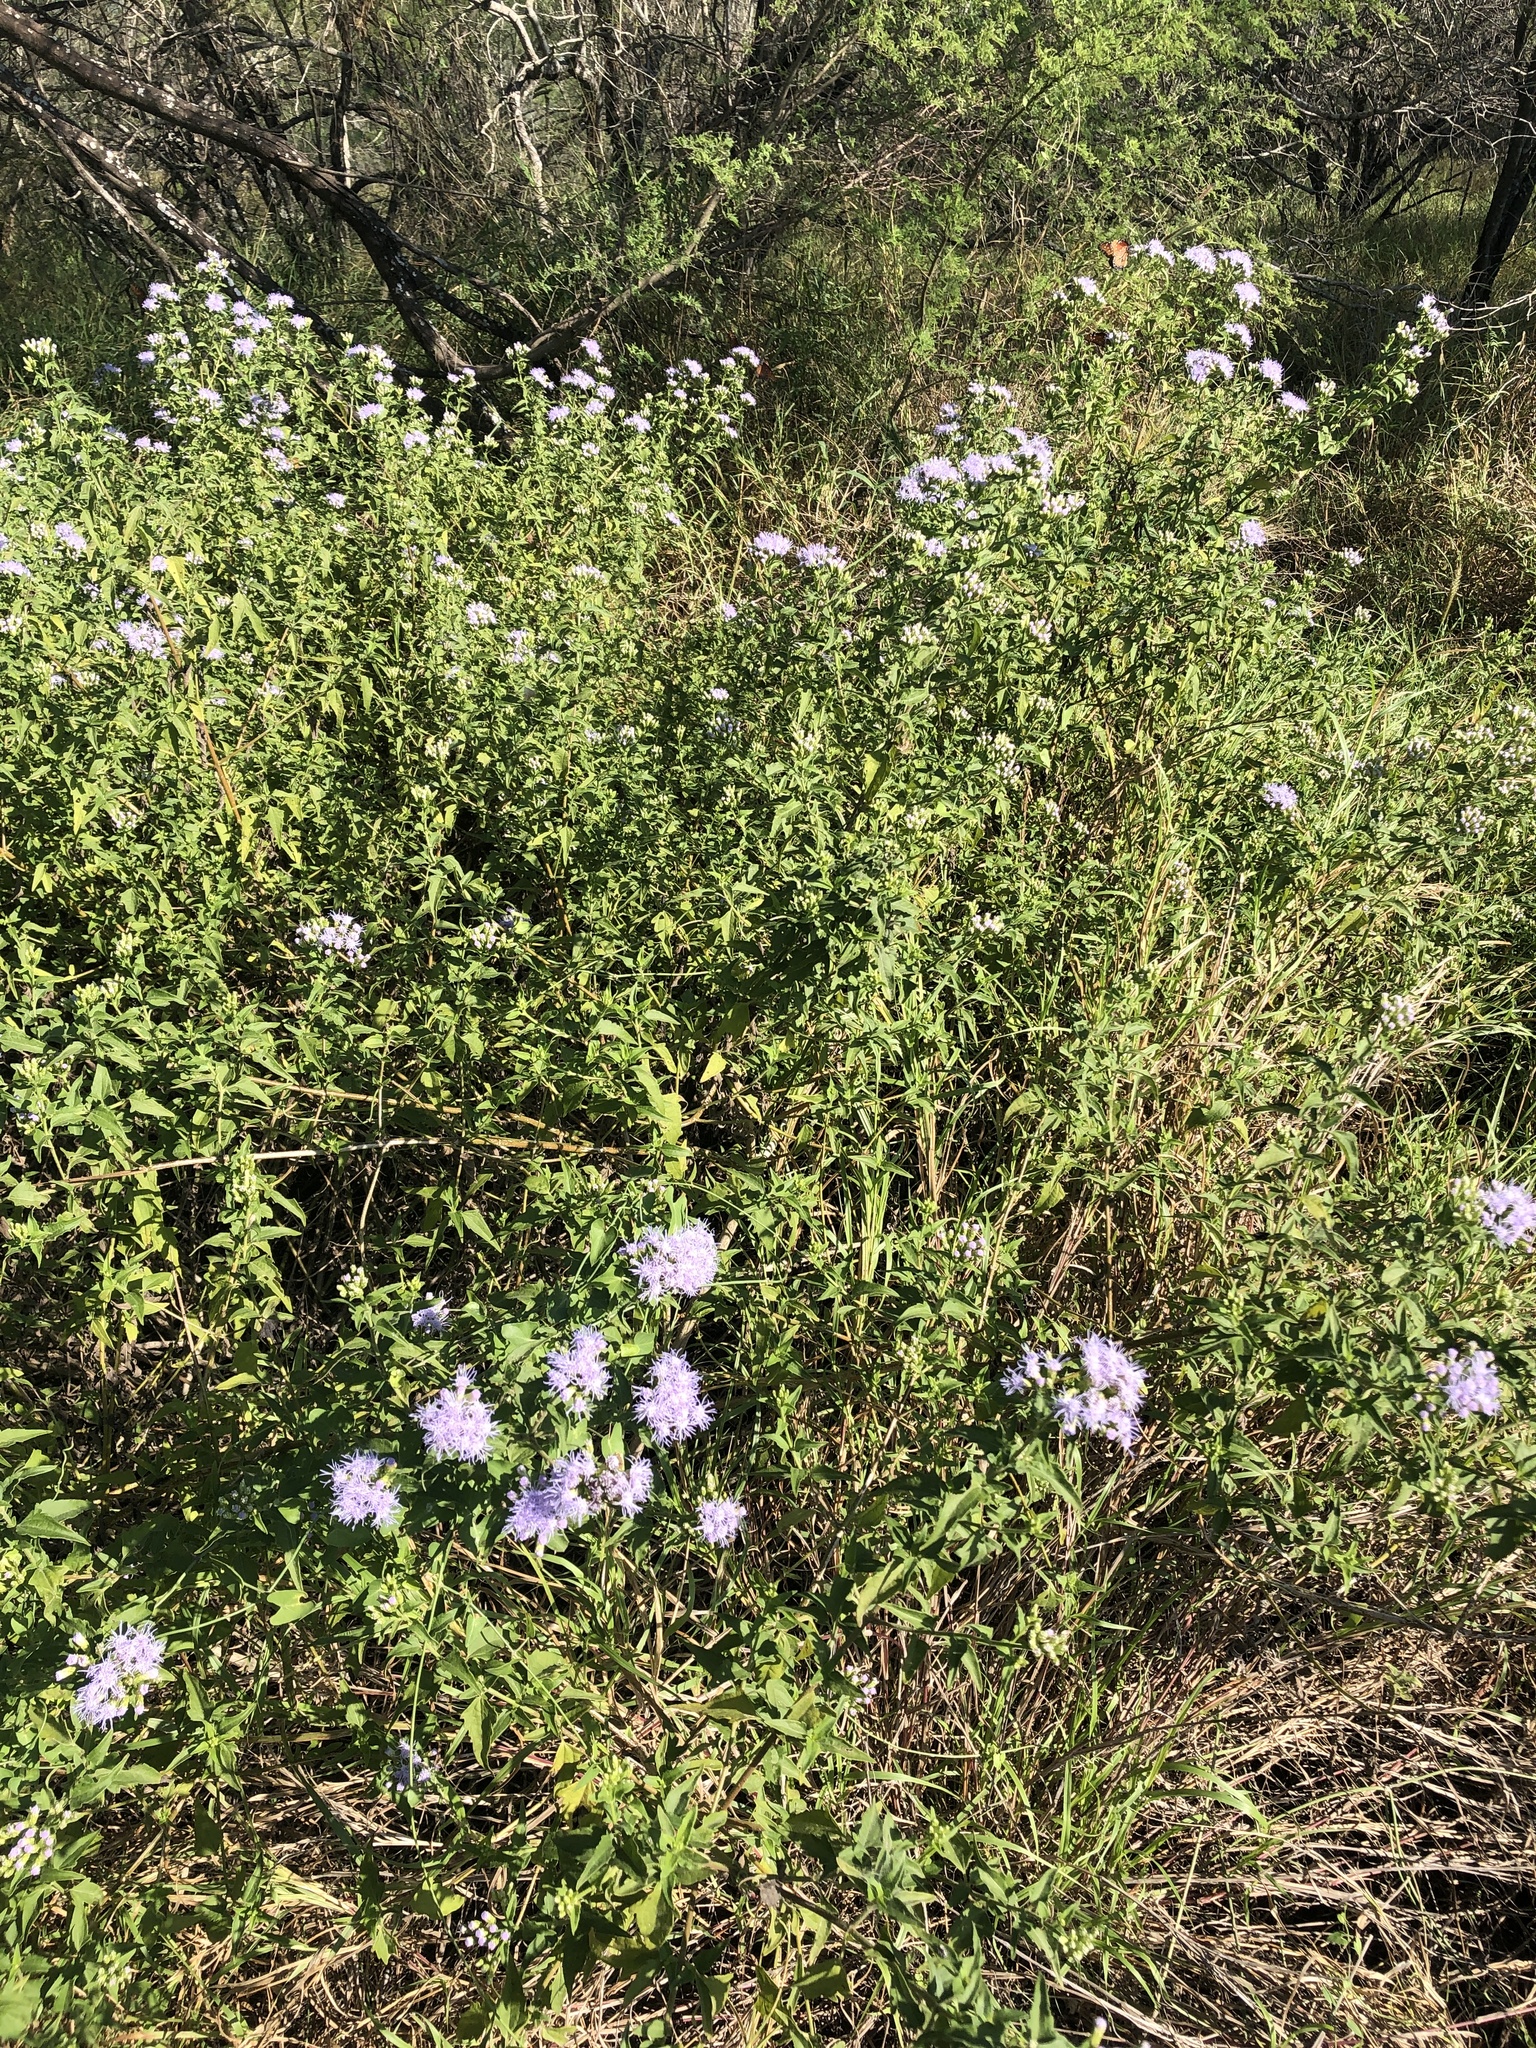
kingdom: Plantae
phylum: Tracheophyta
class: Magnoliopsida
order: Asterales
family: Asteraceae
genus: Chromolaena
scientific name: Chromolaena odorata
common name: Siamweed
